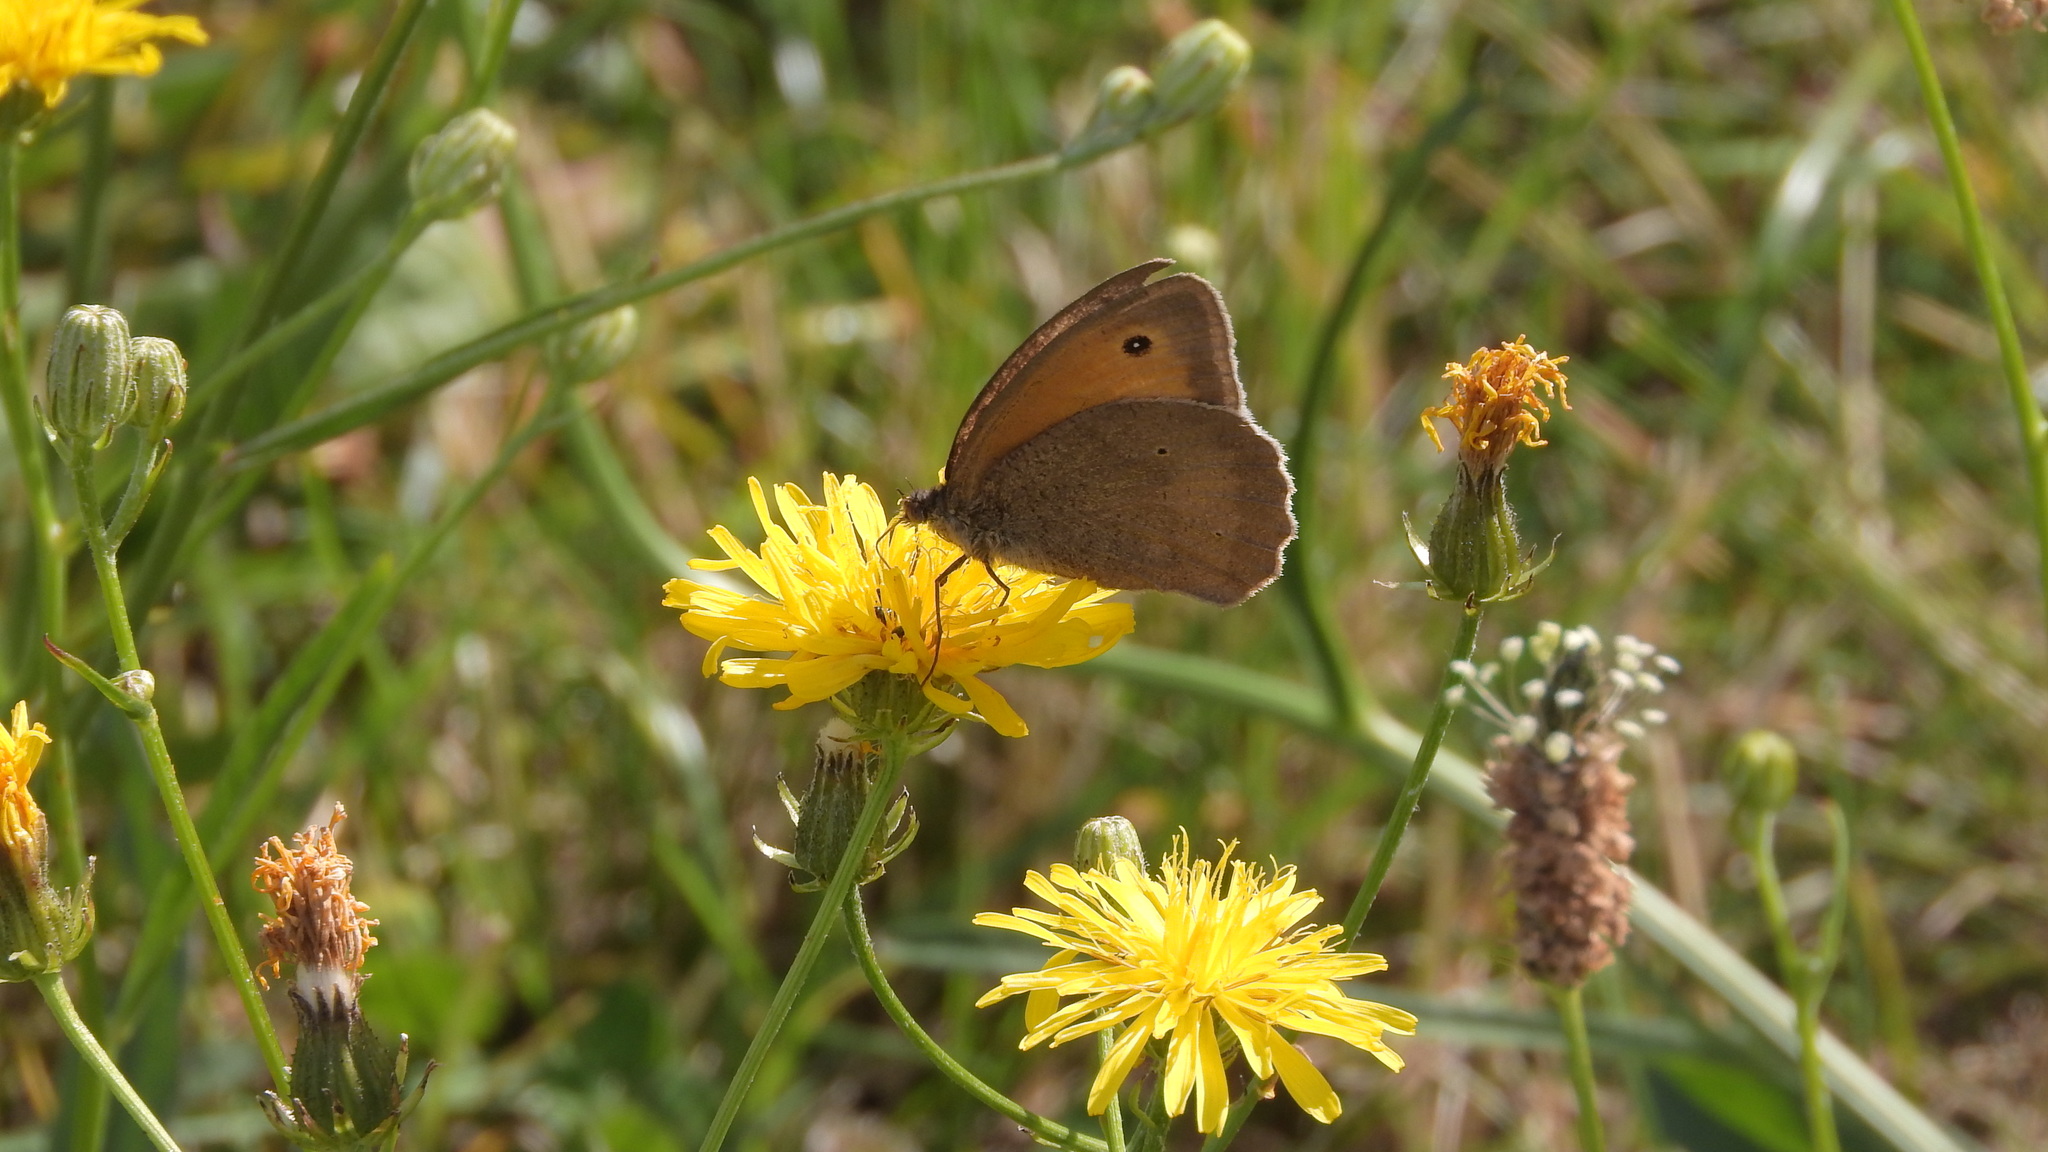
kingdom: Animalia
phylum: Arthropoda
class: Insecta
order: Lepidoptera
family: Nymphalidae
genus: Maniola
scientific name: Maniola jurtina
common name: Meadow brown
